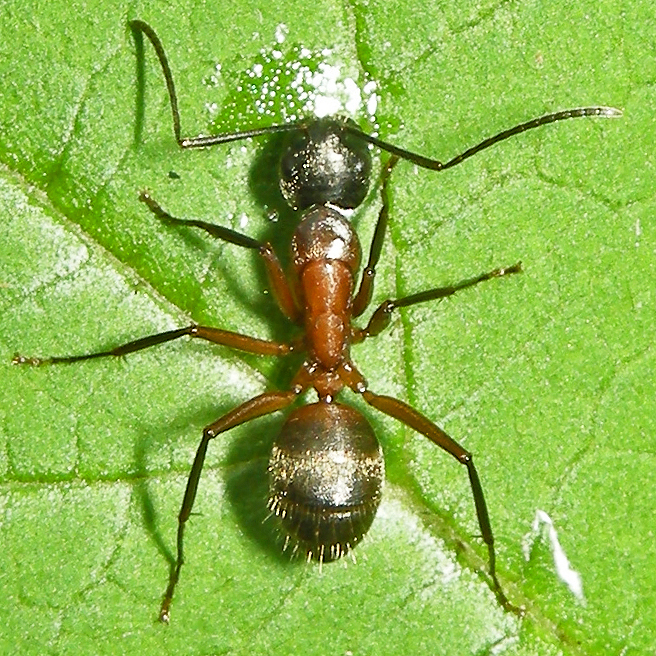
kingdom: Animalia
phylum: Arthropoda
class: Insecta
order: Hymenoptera
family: Formicidae
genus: Camponotus
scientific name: Camponotus chromaiodes
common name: Red carpenter ant
